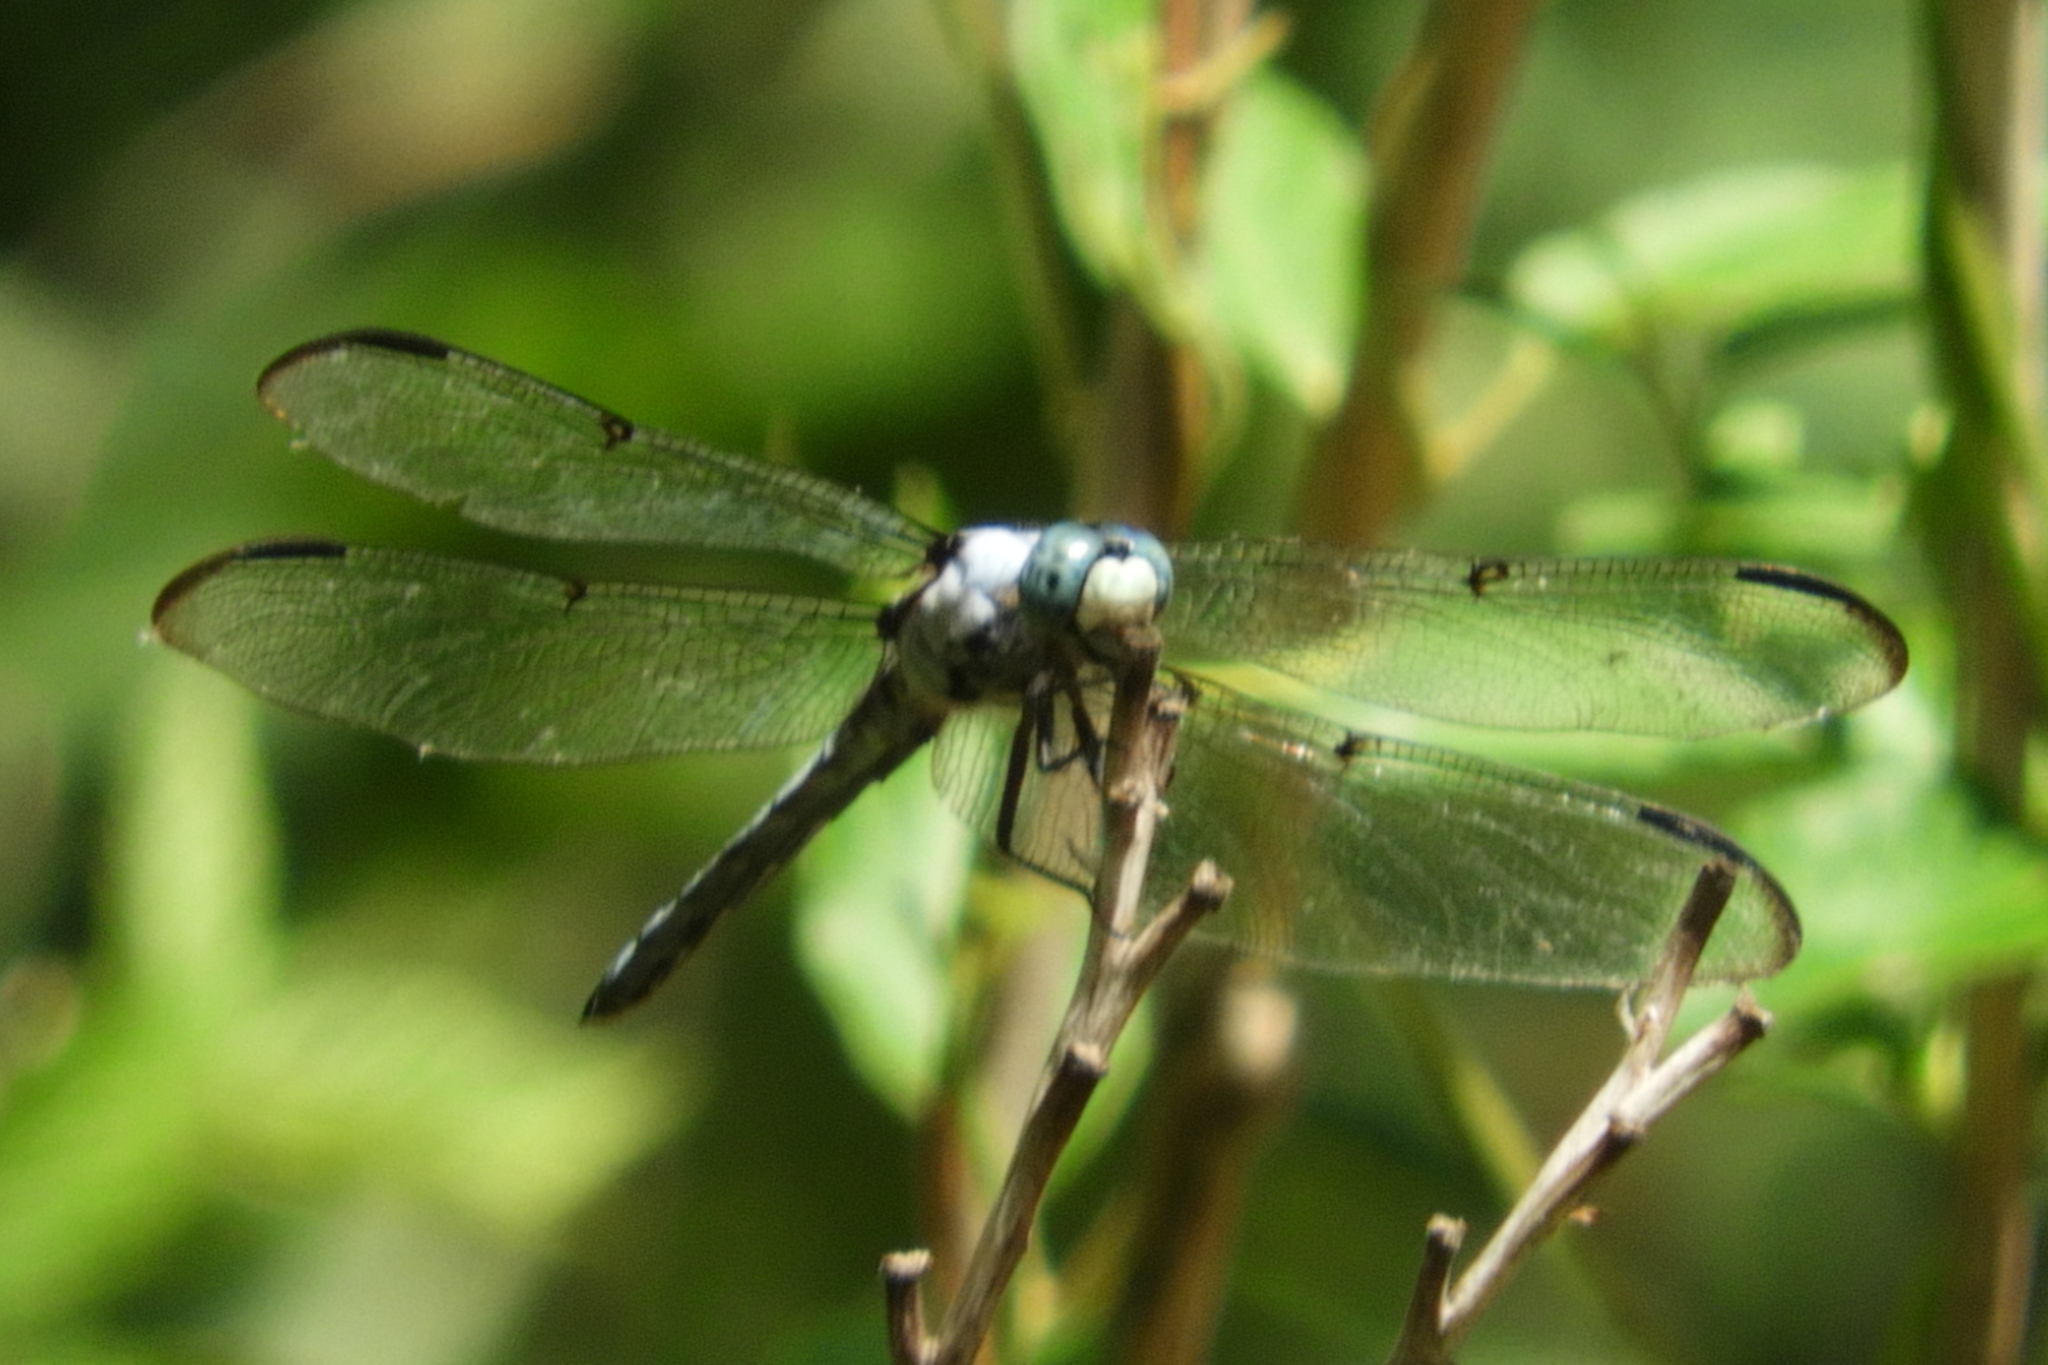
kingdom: Animalia
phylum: Arthropoda
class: Insecta
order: Odonata
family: Libellulidae
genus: Libellula
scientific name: Libellula vibrans
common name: Great blue skimmer
